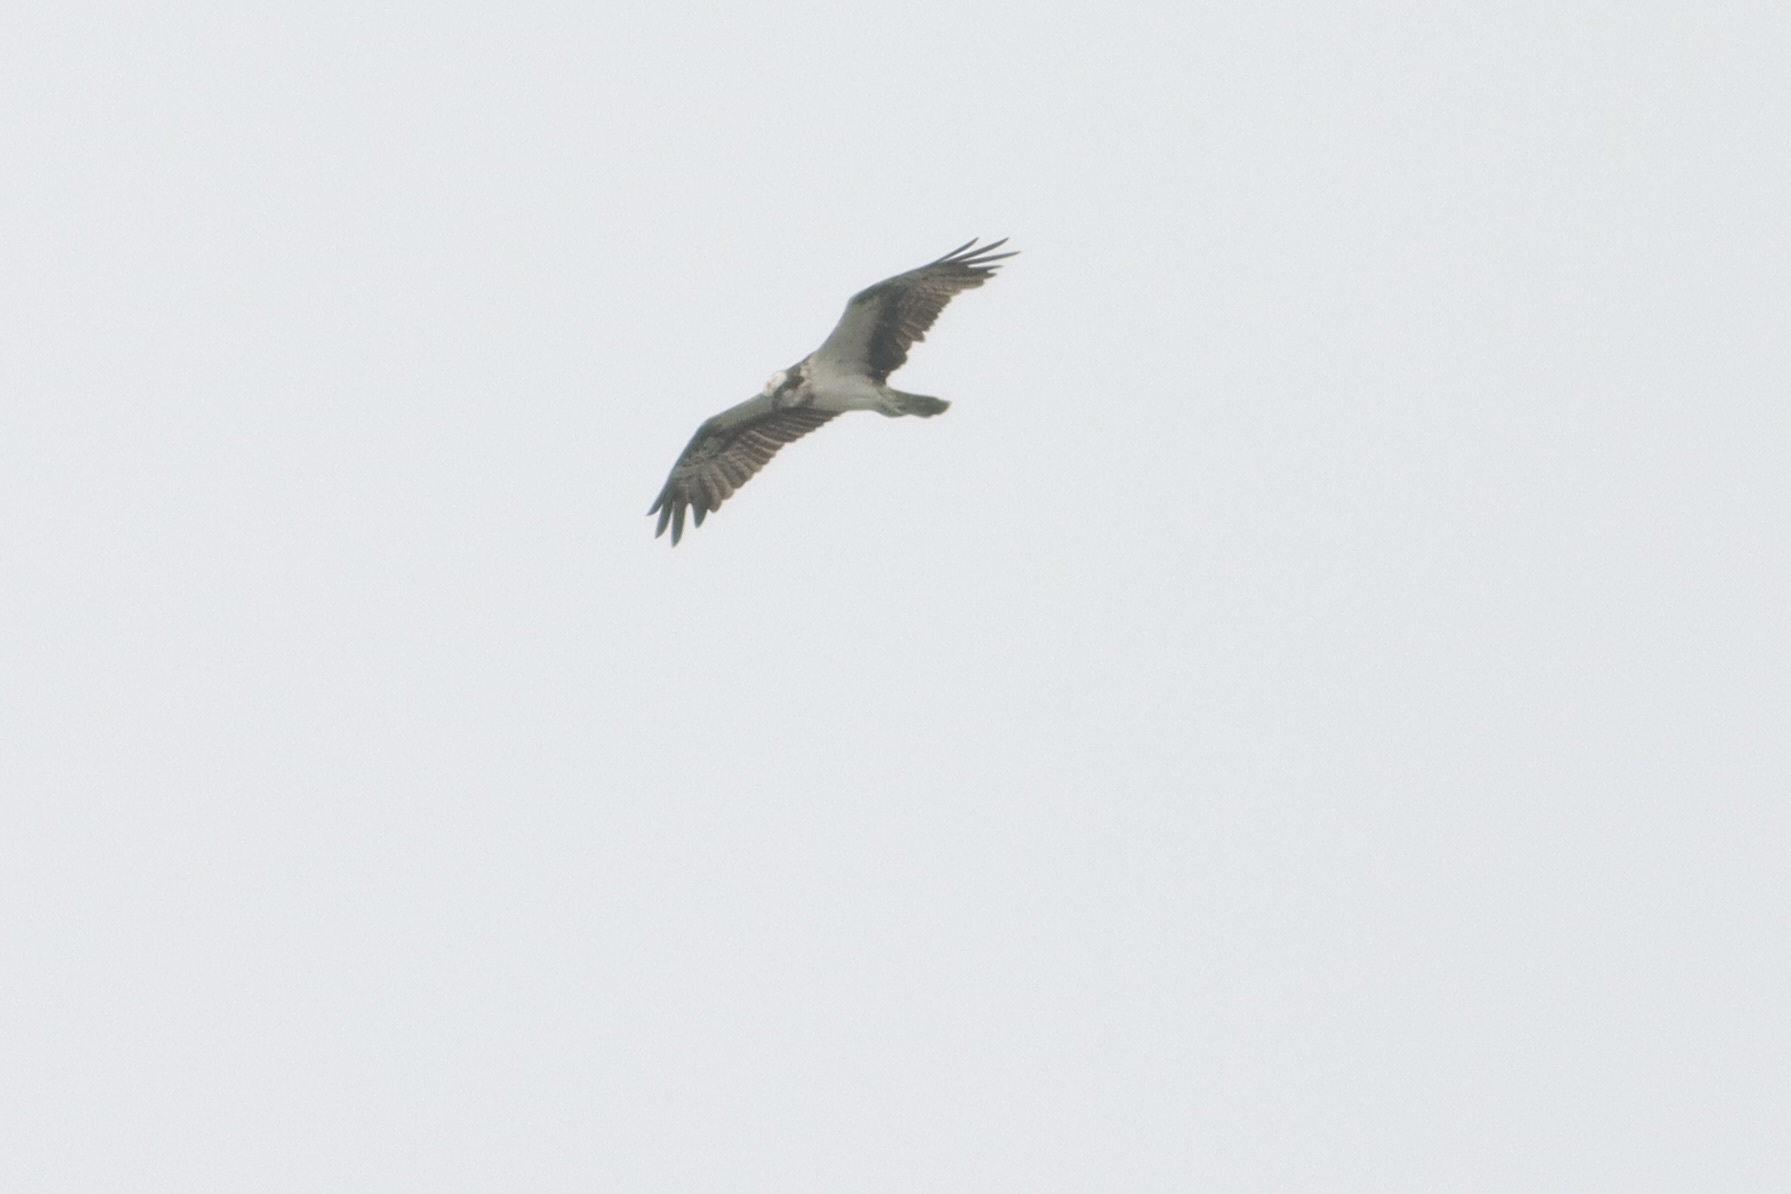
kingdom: Animalia
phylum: Chordata
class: Aves
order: Accipitriformes
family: Pandionidae
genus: Pandion
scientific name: Pandion haliaetus
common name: Osprey
